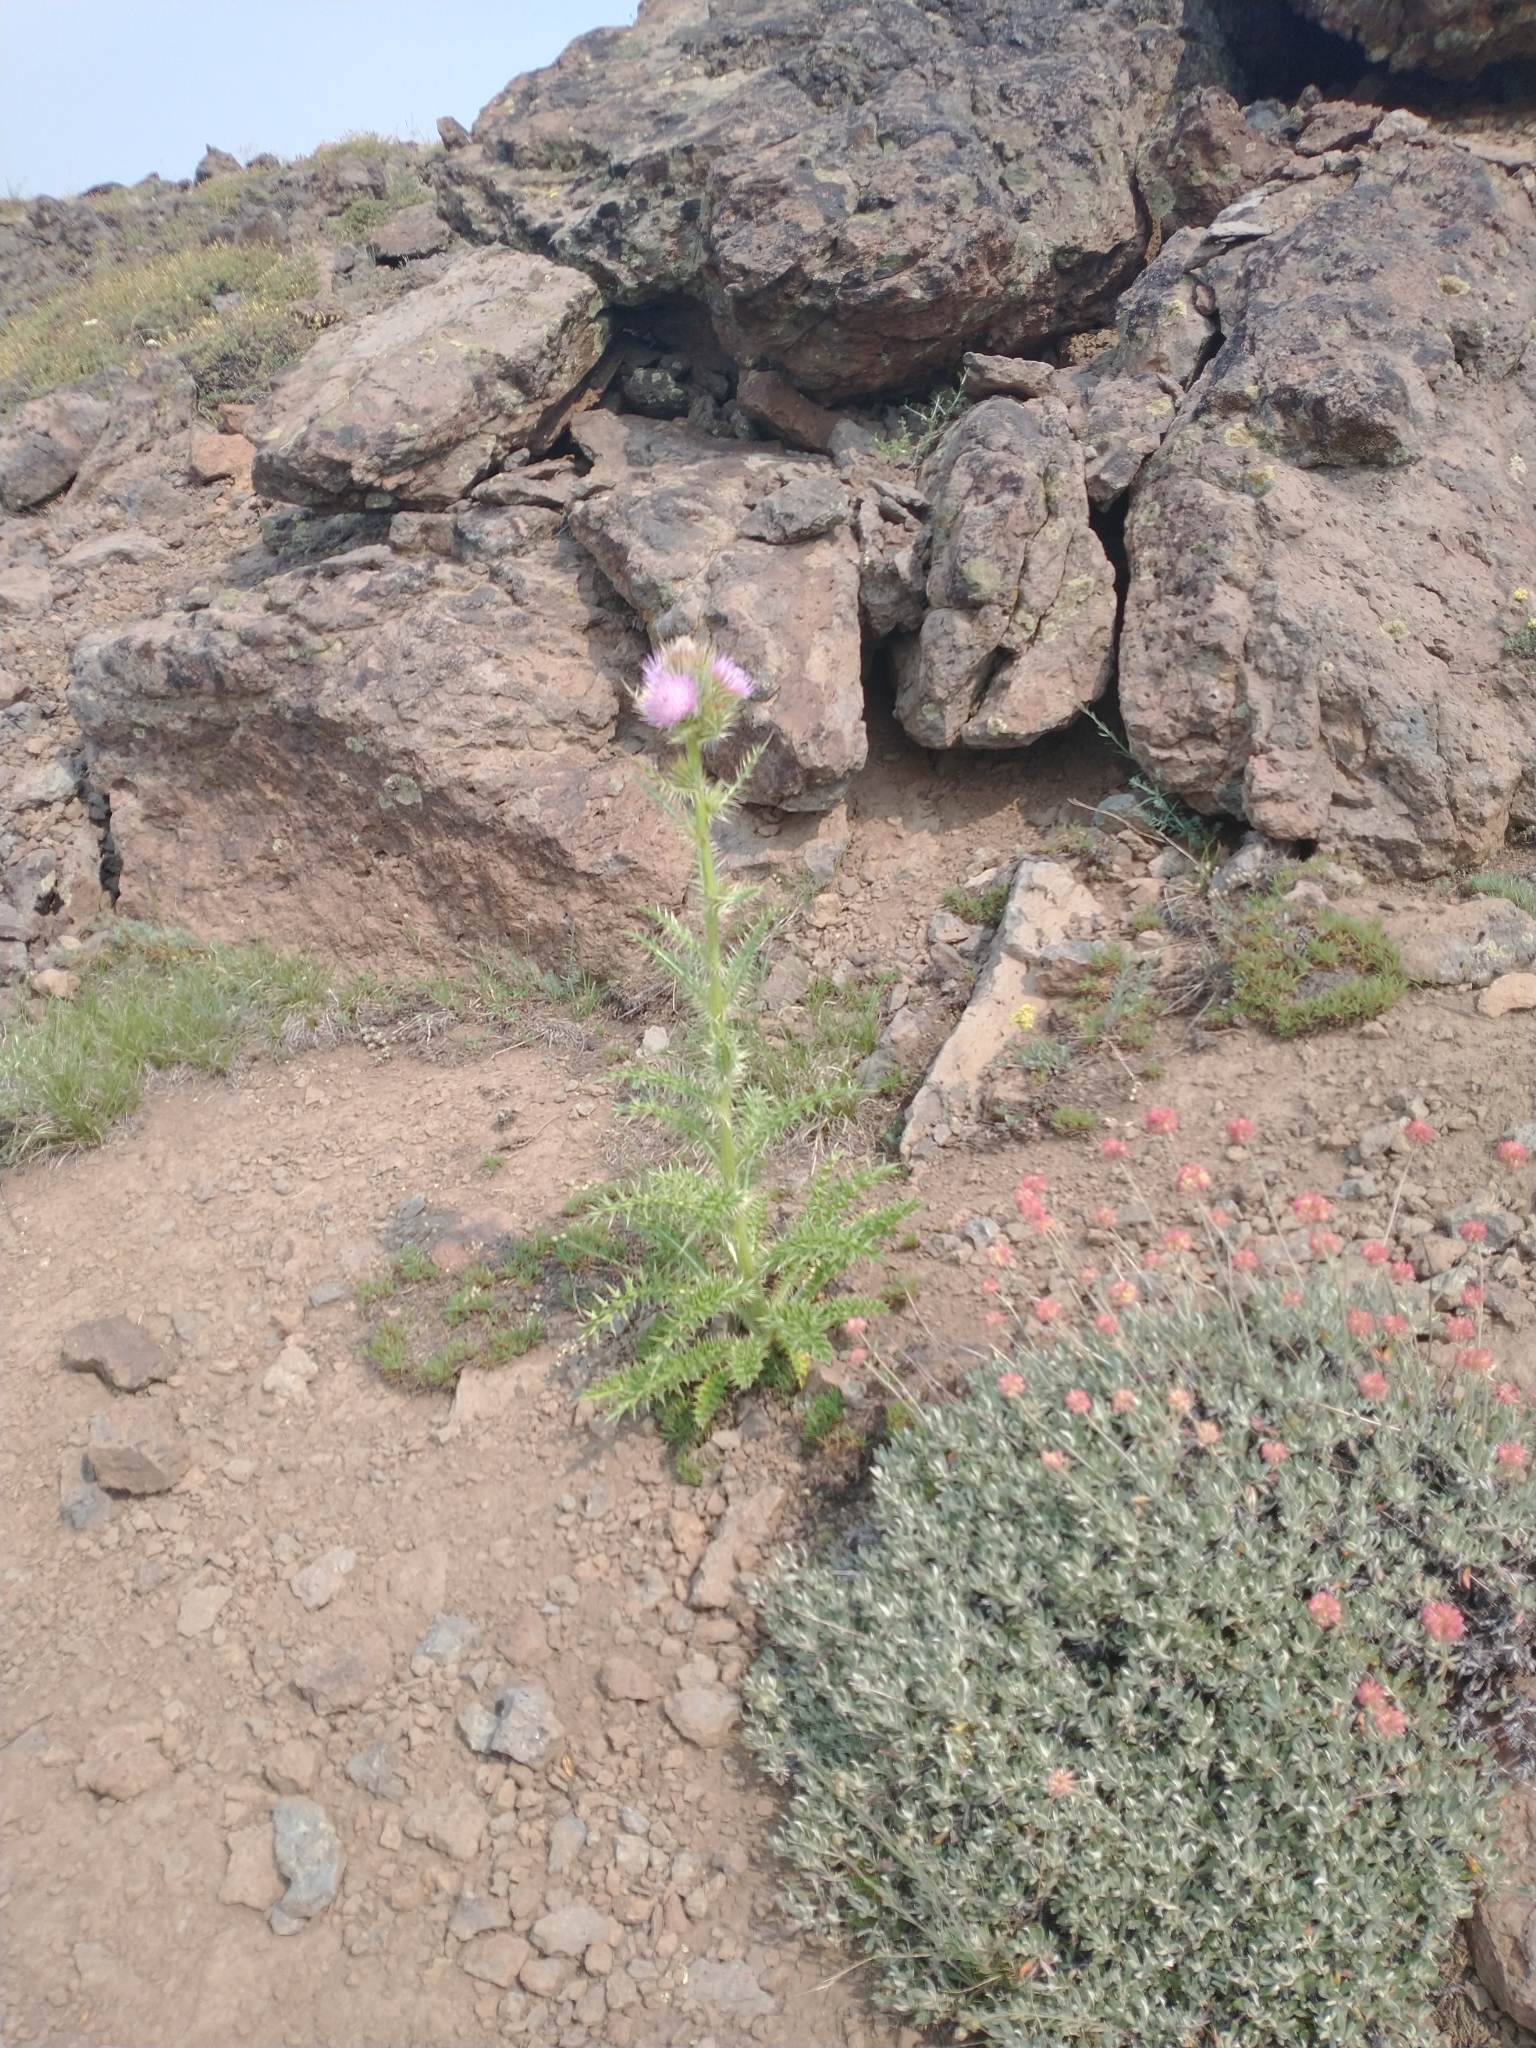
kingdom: Plantae
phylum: Tracheophyta
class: Magnoliopsida
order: Asterales
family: Asteraceae
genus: Cirsium
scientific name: Cirsium peckii
